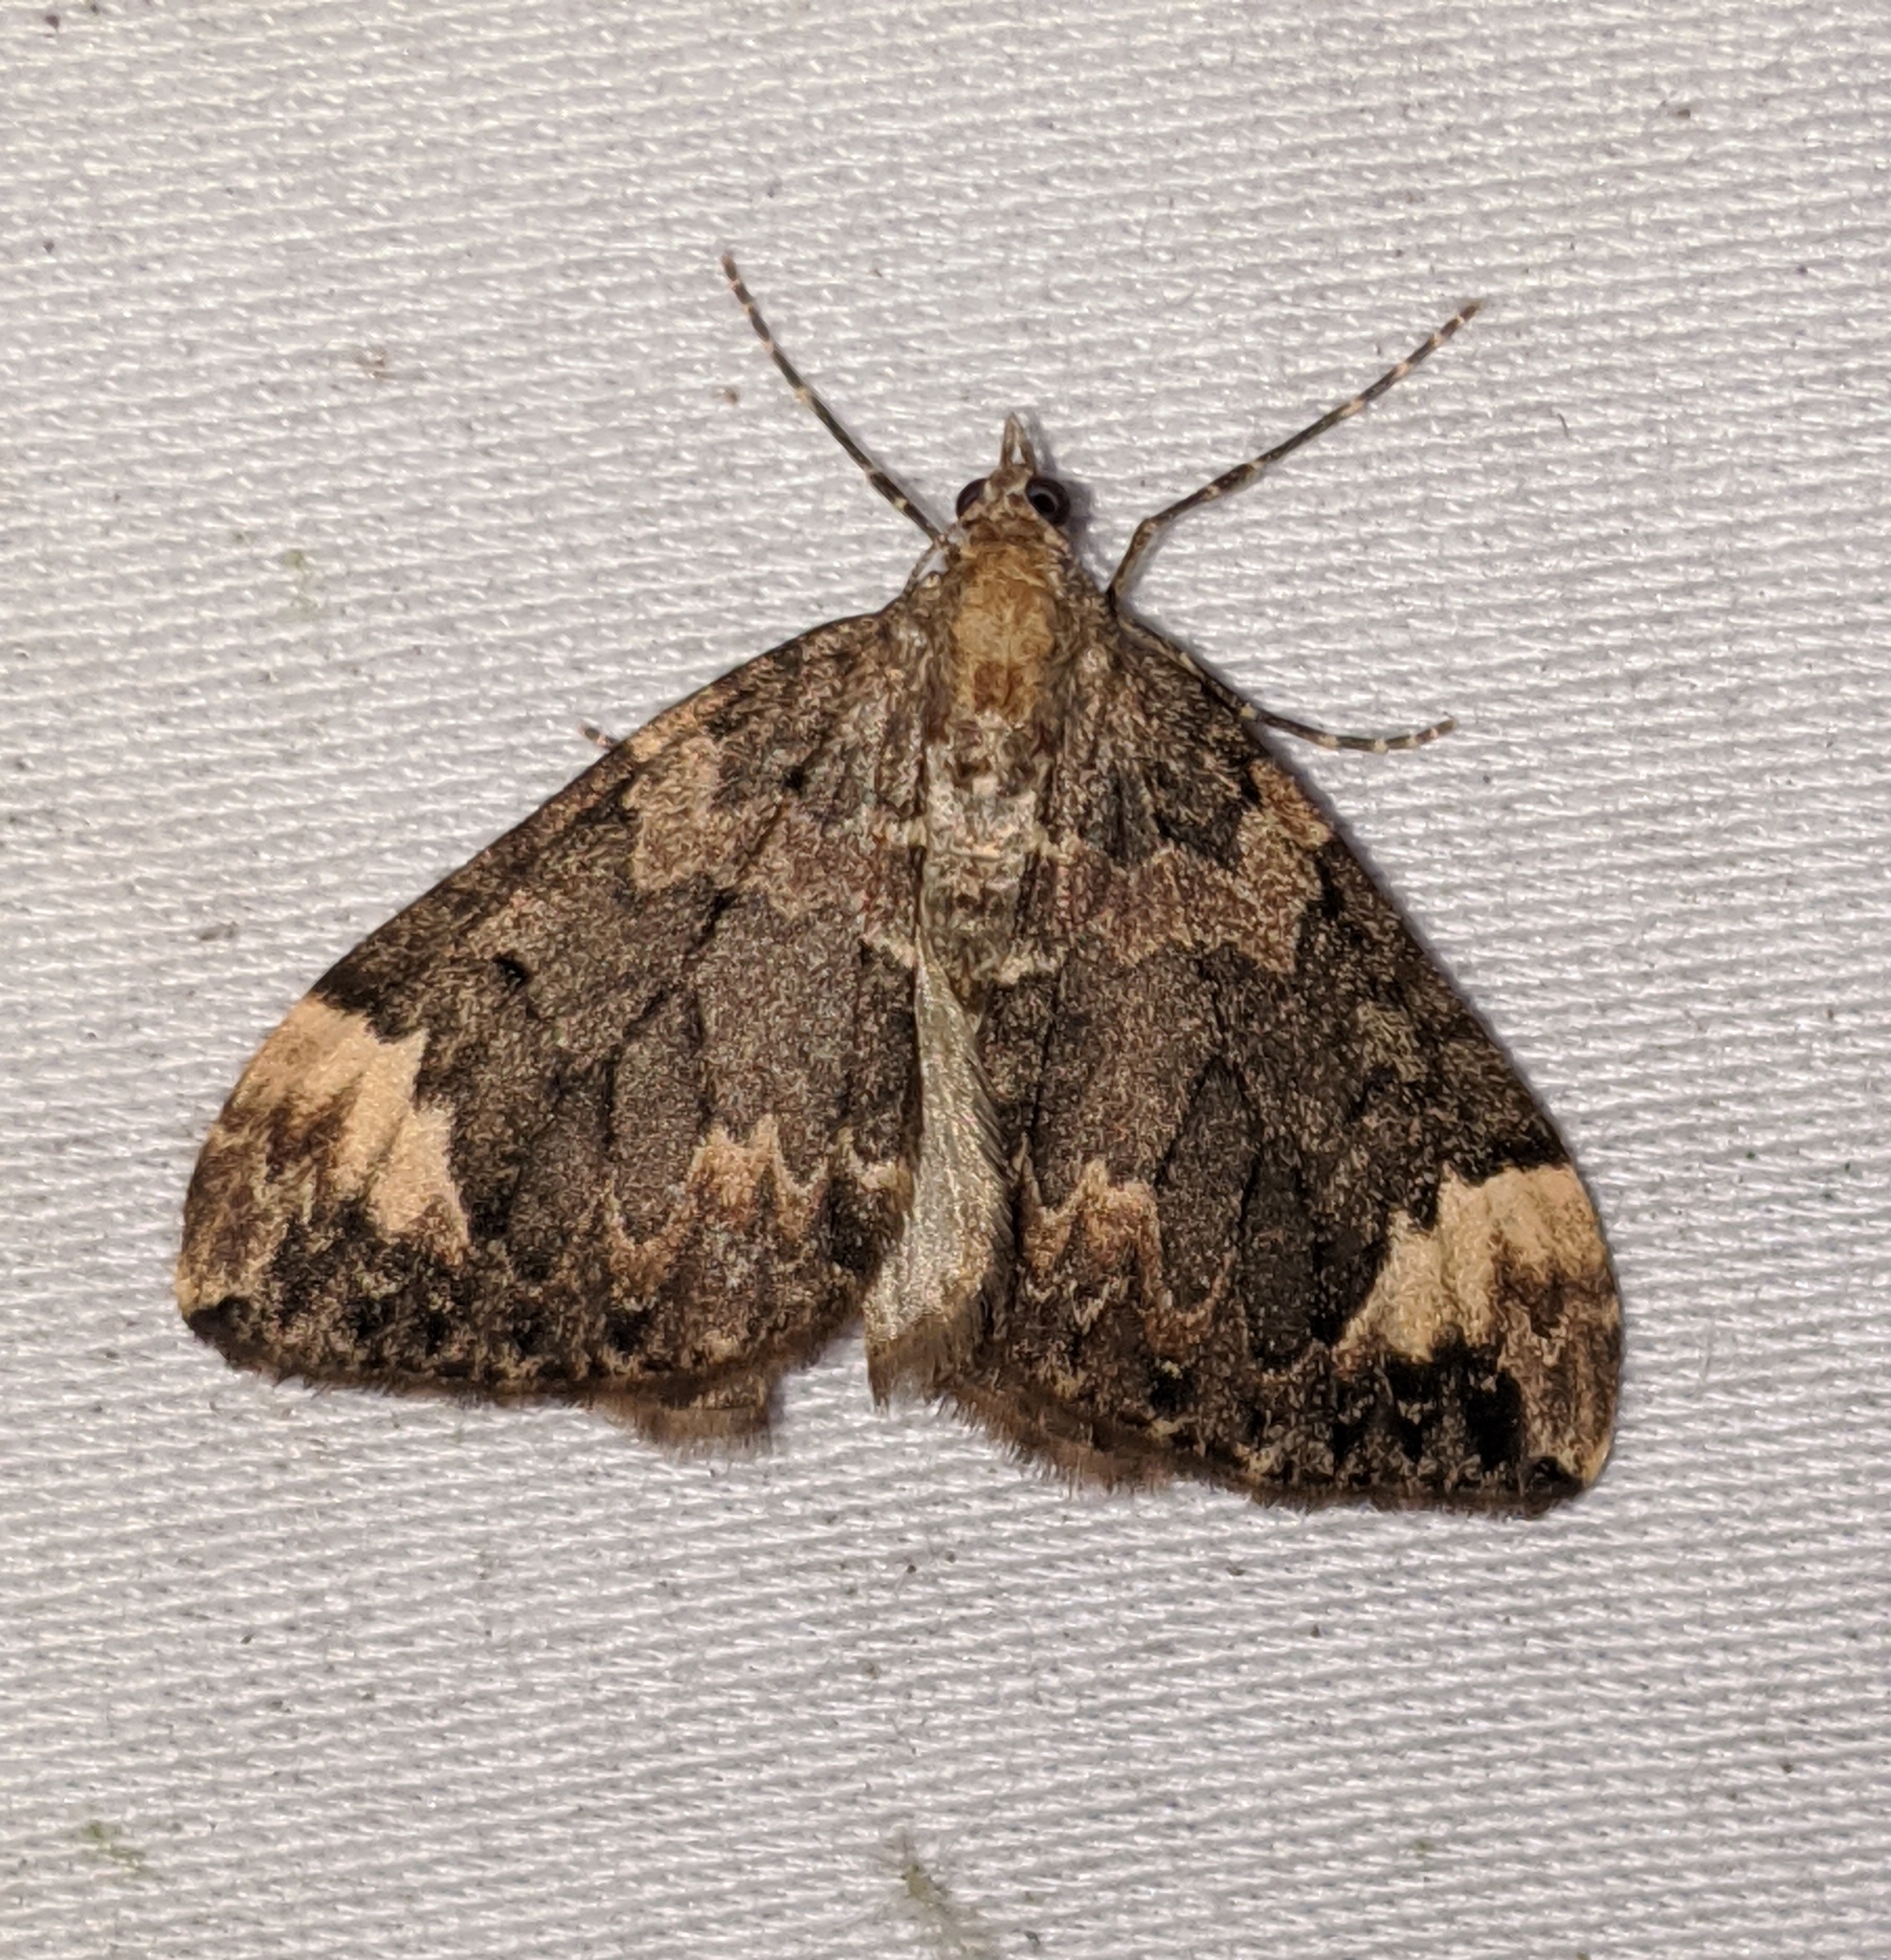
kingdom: Animalia
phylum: Arthropoda
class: Insecta
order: Lepidoptera
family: Geometridae
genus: Dysstroma
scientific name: Dysstroma citrata
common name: Dark marbled carpet
